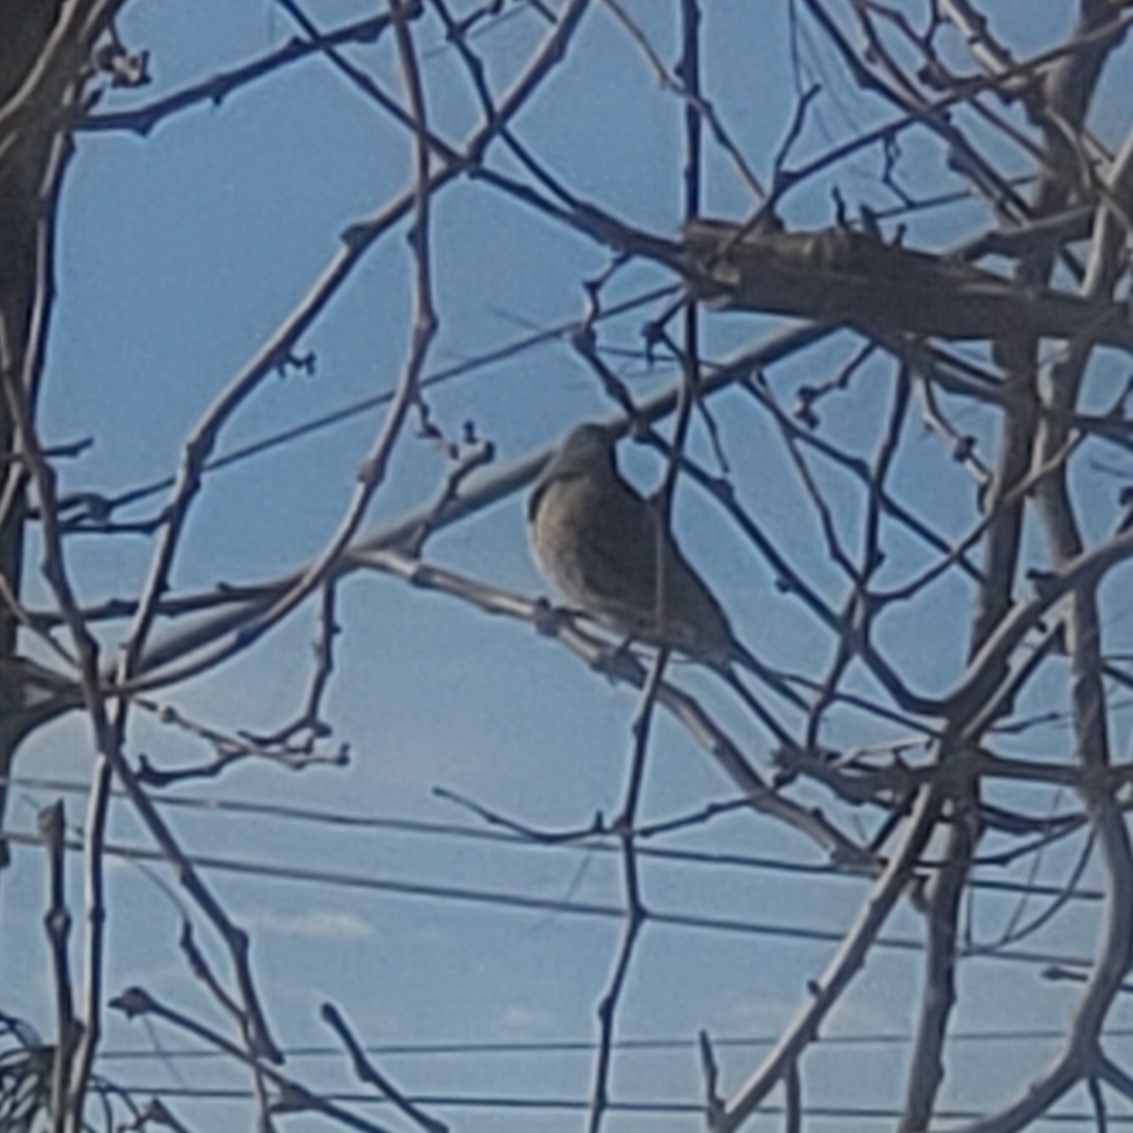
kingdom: Animalia
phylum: Chordata
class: Aves
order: Piciformes
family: Picidae
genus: Colaptes
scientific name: Colaptes auratus
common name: Northern flicker
